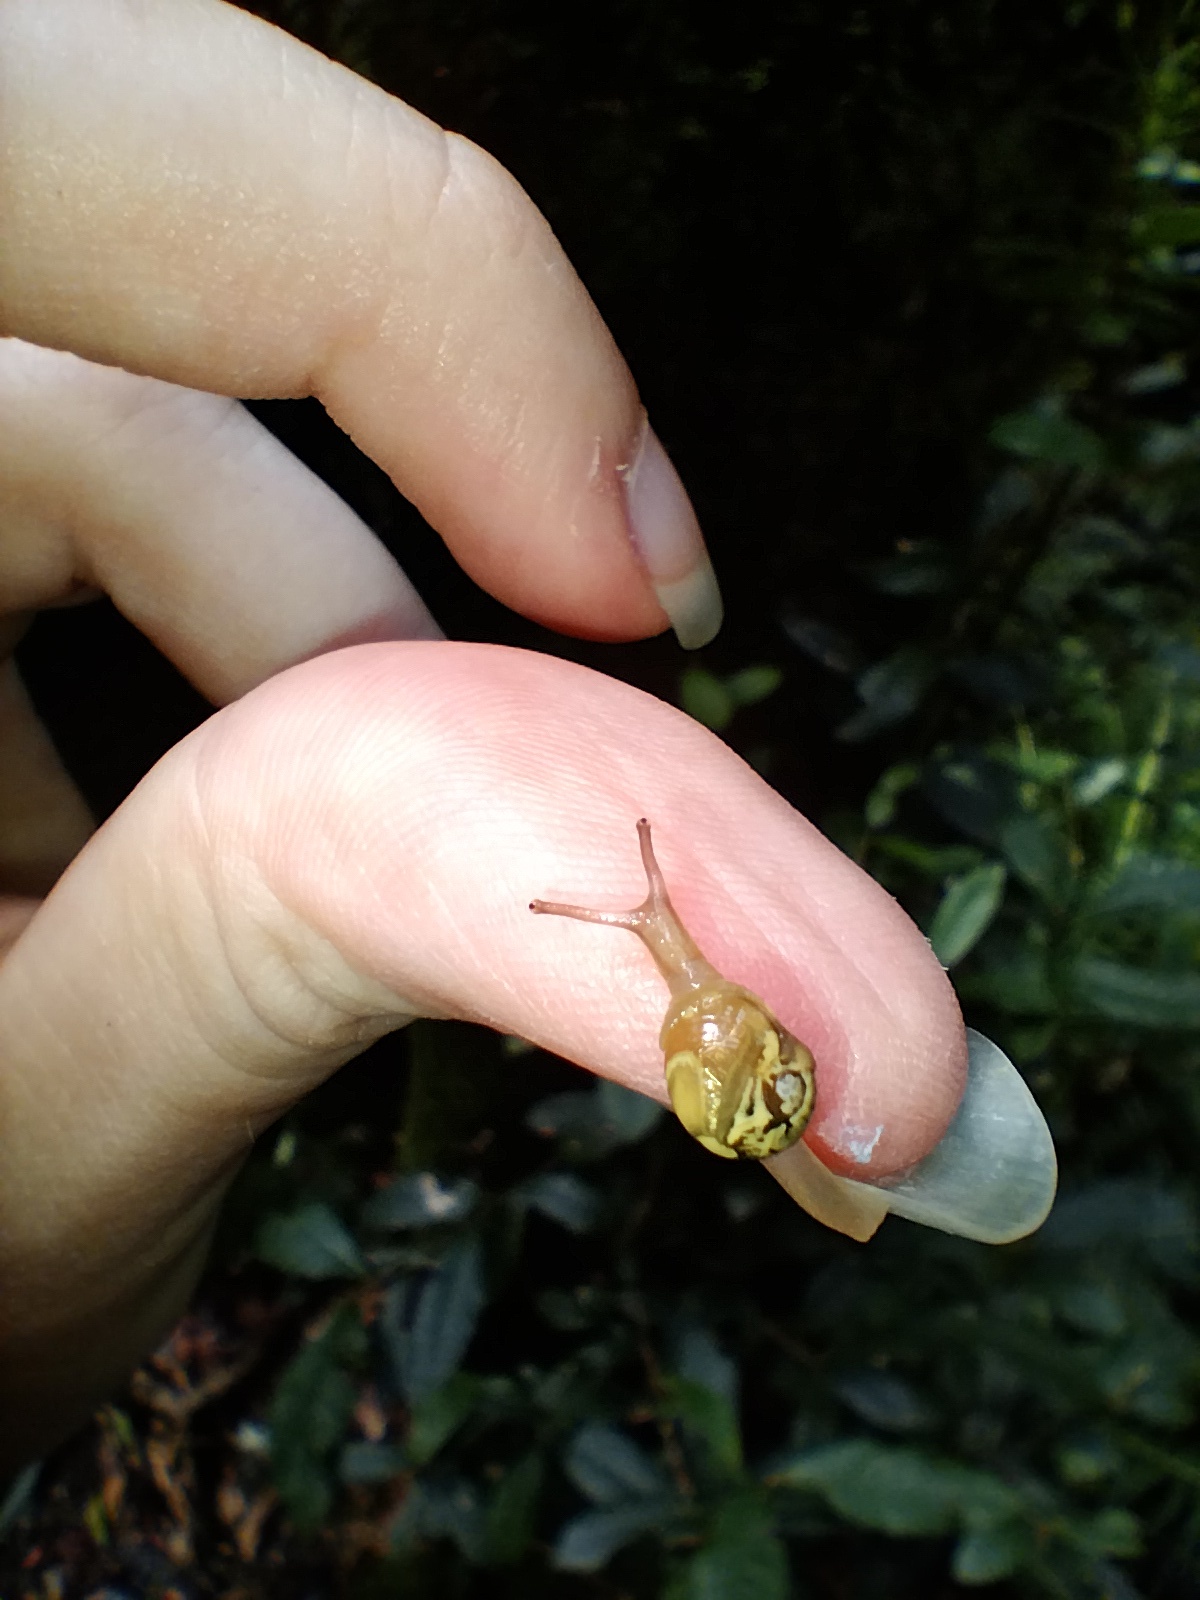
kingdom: Animalia
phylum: Mollusca
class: Gastropoda
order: Stylommatophora
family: Helicarionidae
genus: Mysticarion
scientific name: Mysticarion porrectus
